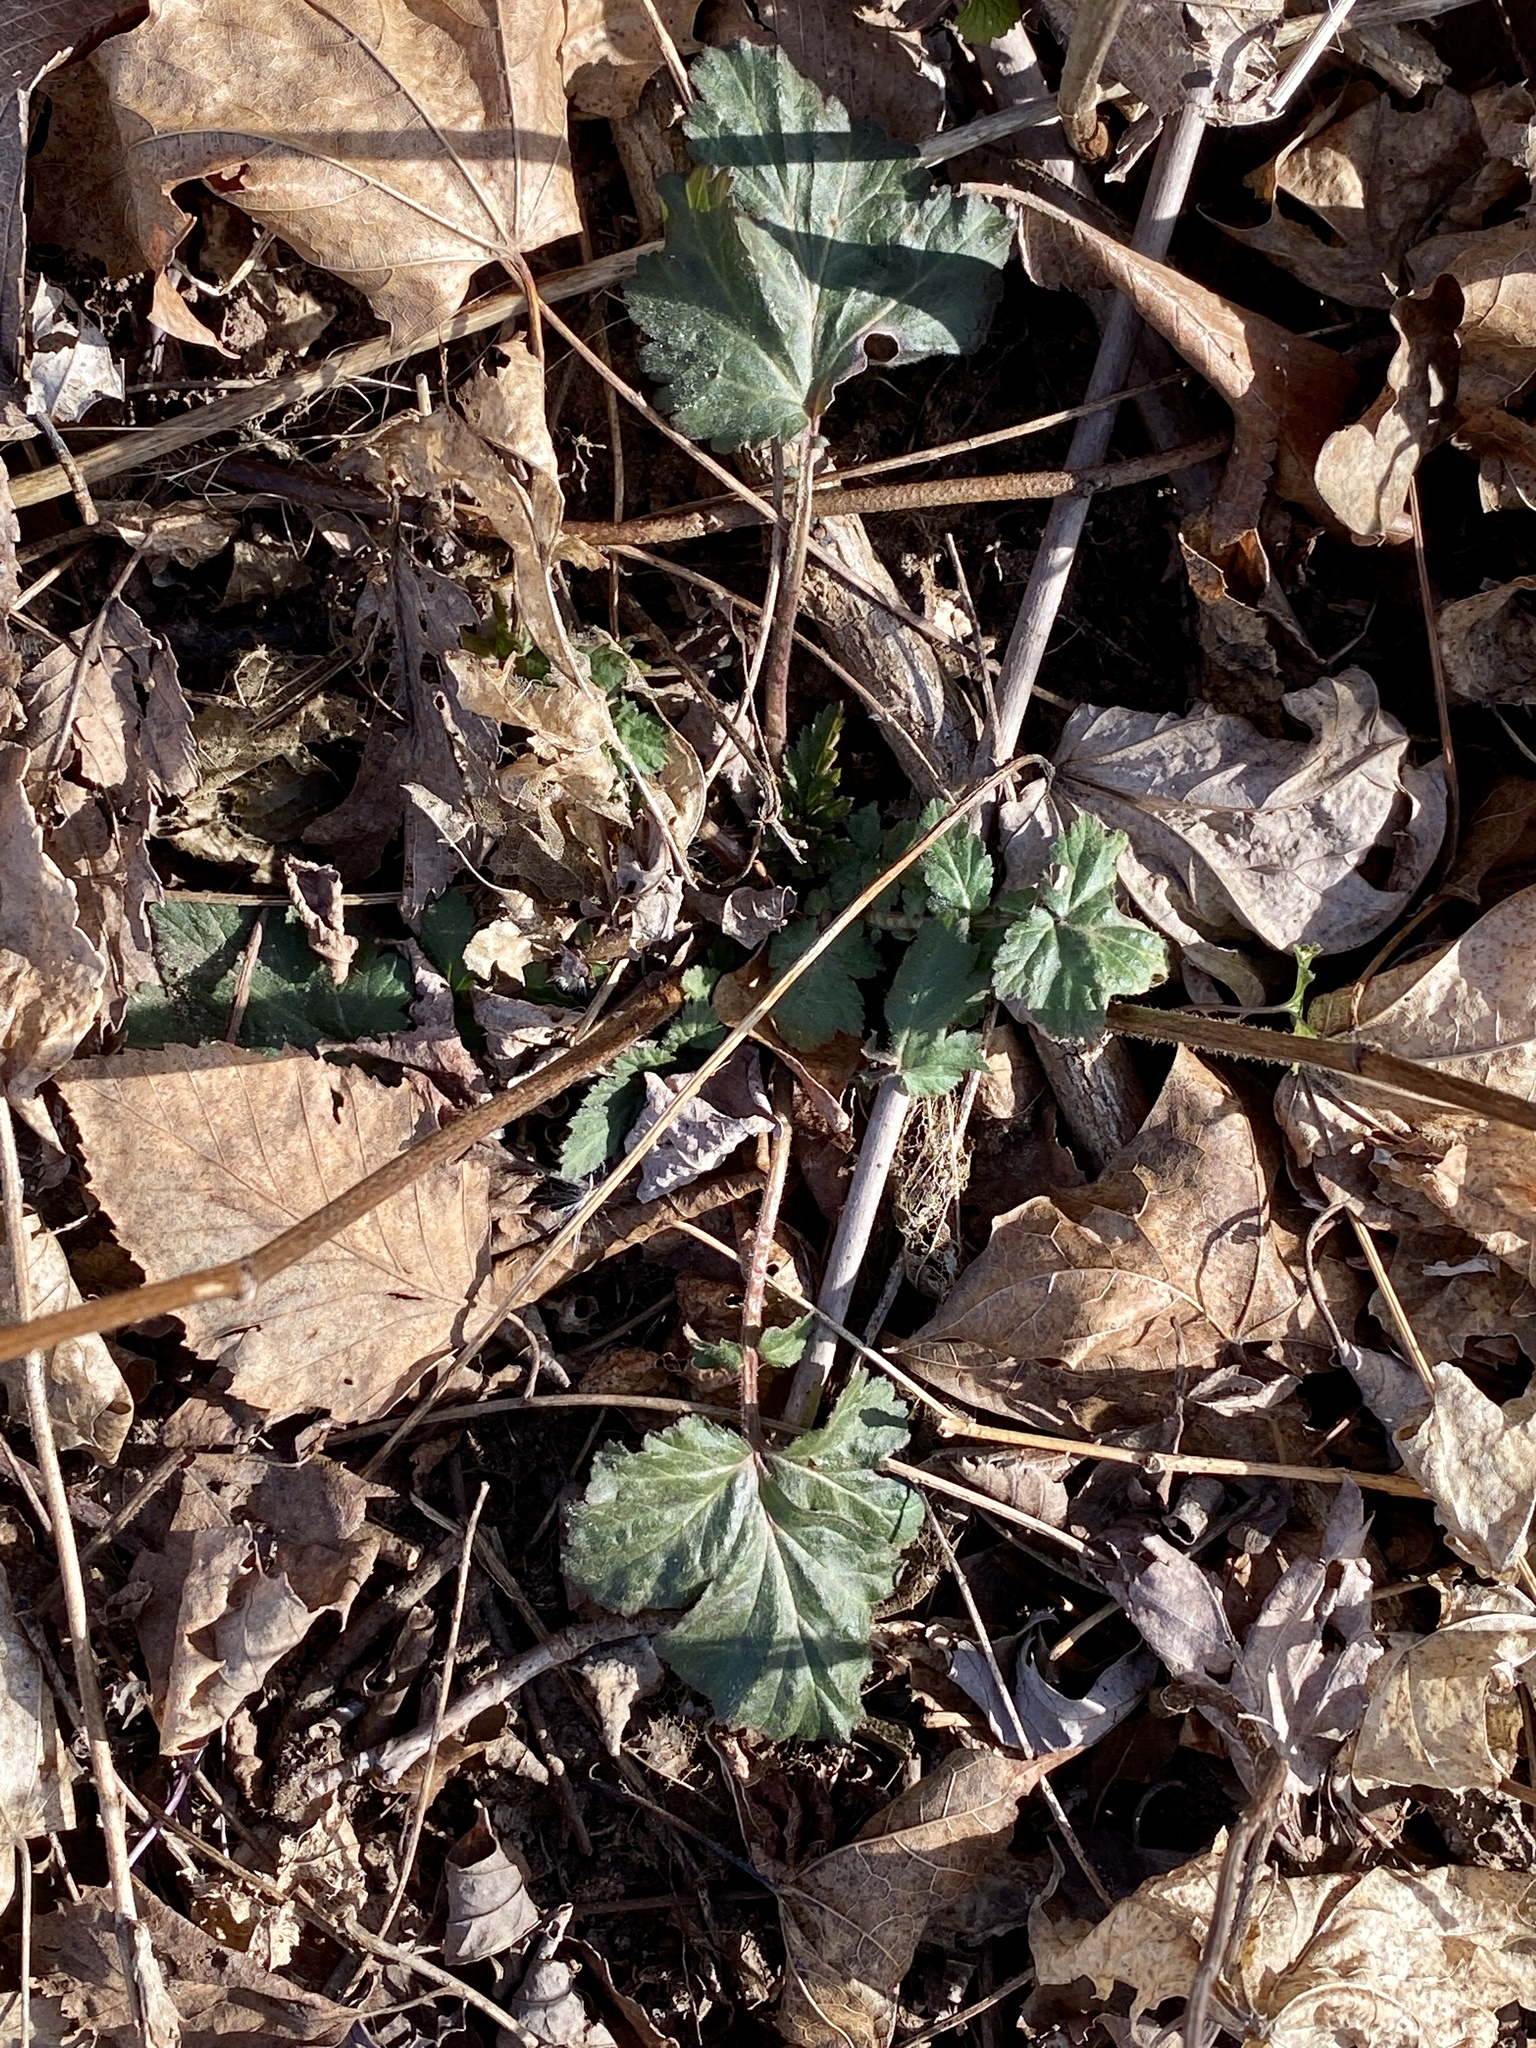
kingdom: Plantae
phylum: Tracheophyta
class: Magnoliopsida
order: Rosales
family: Rosaceae
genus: Geum
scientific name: Geum canadense
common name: White avens
